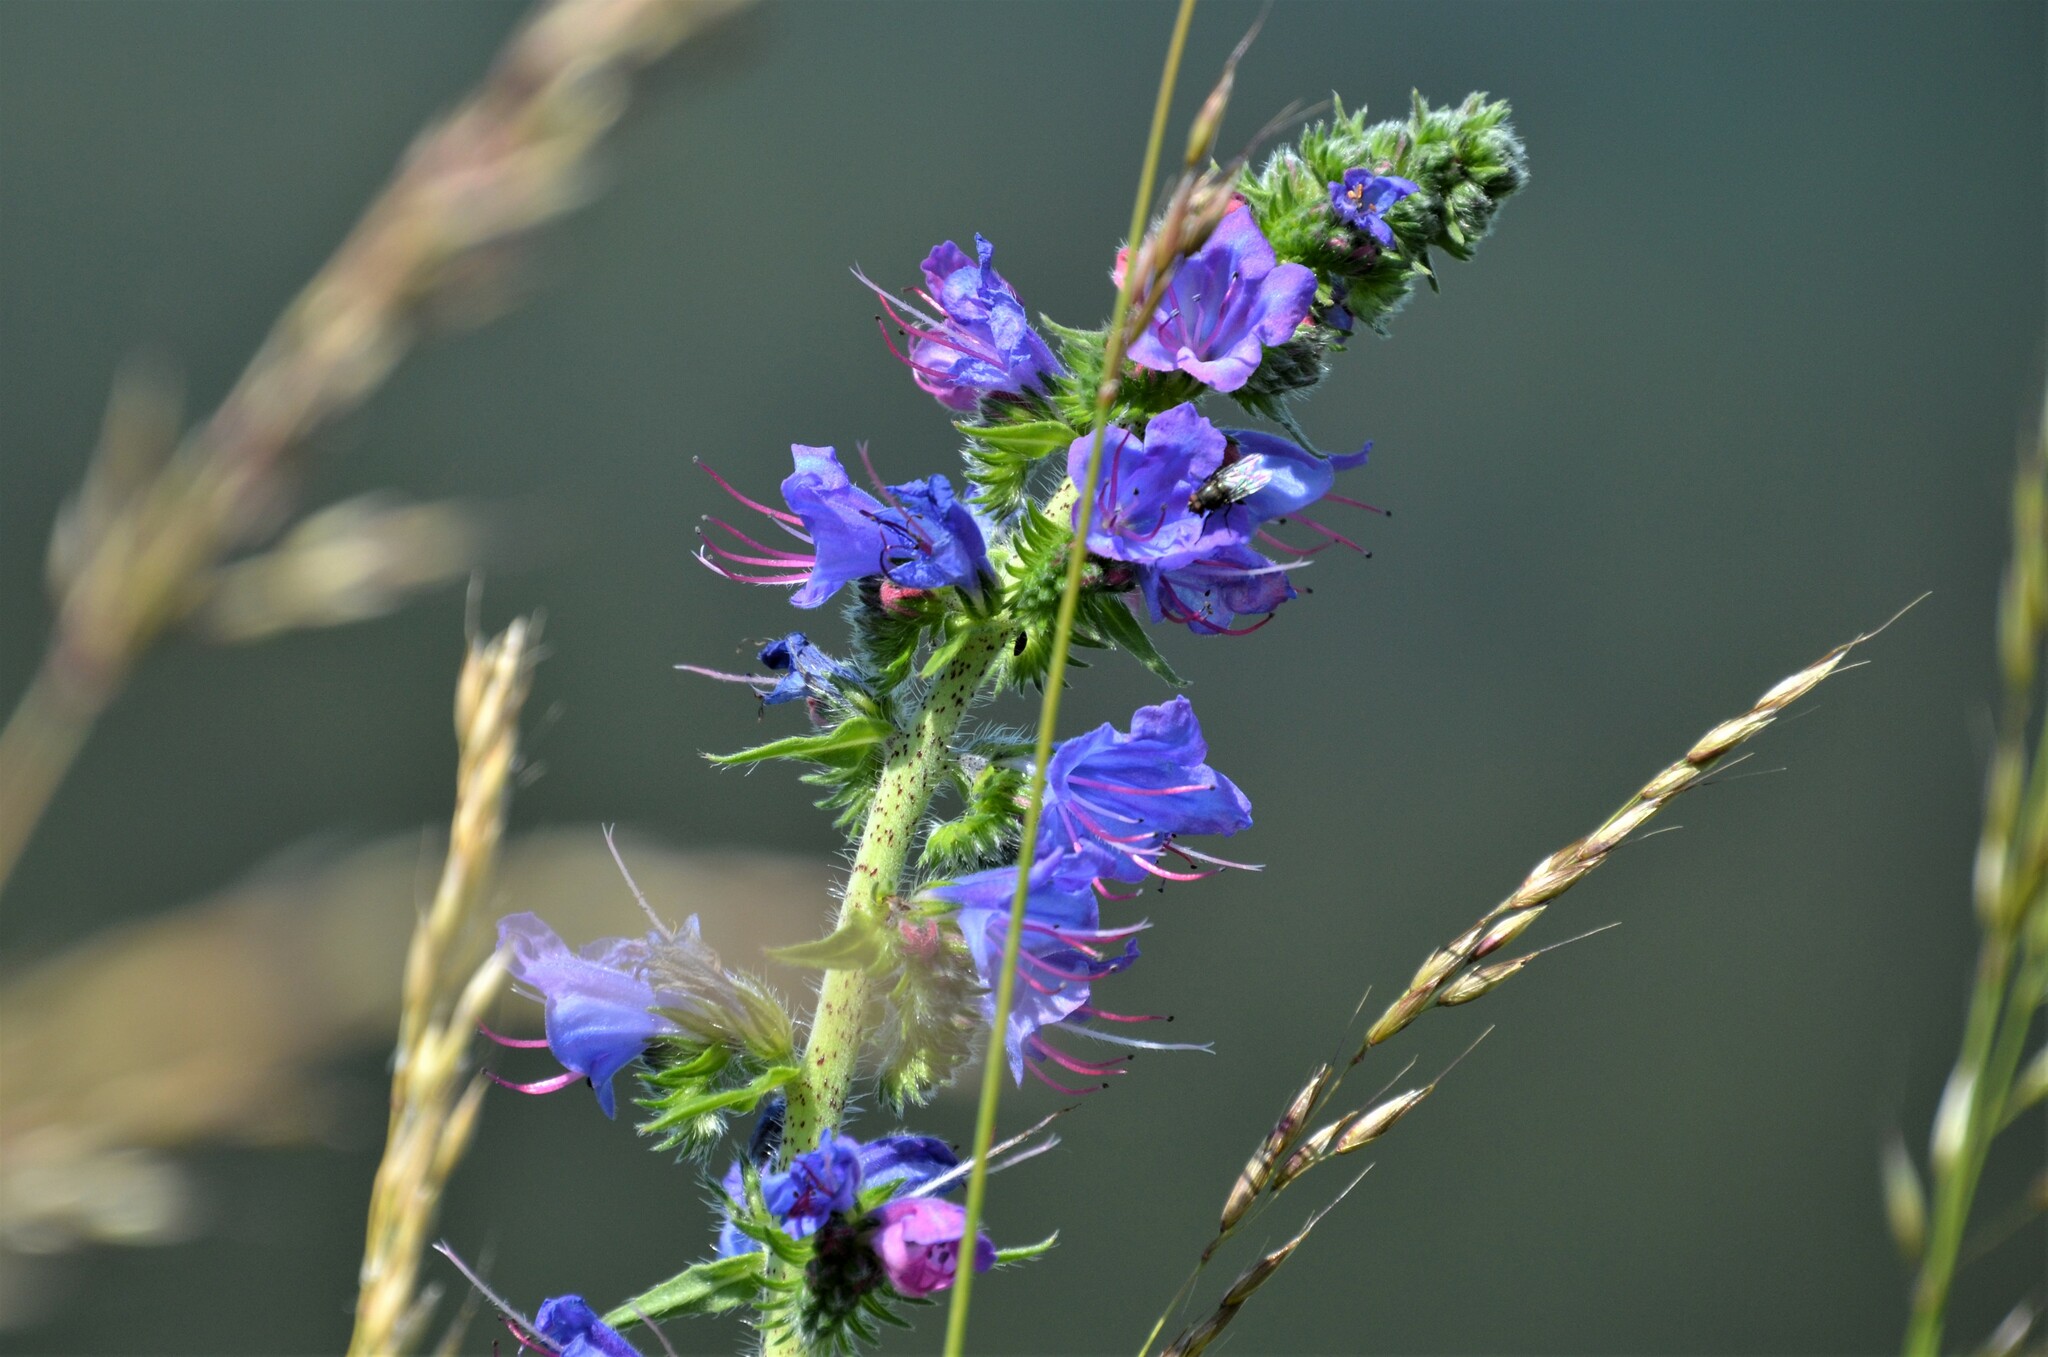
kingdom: Plantae
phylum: Tracheophyta
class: Magnoliopsida
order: Boraginales
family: Boraginaceae
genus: Echium
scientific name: Echium vulgare
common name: Common viper's bugloss
